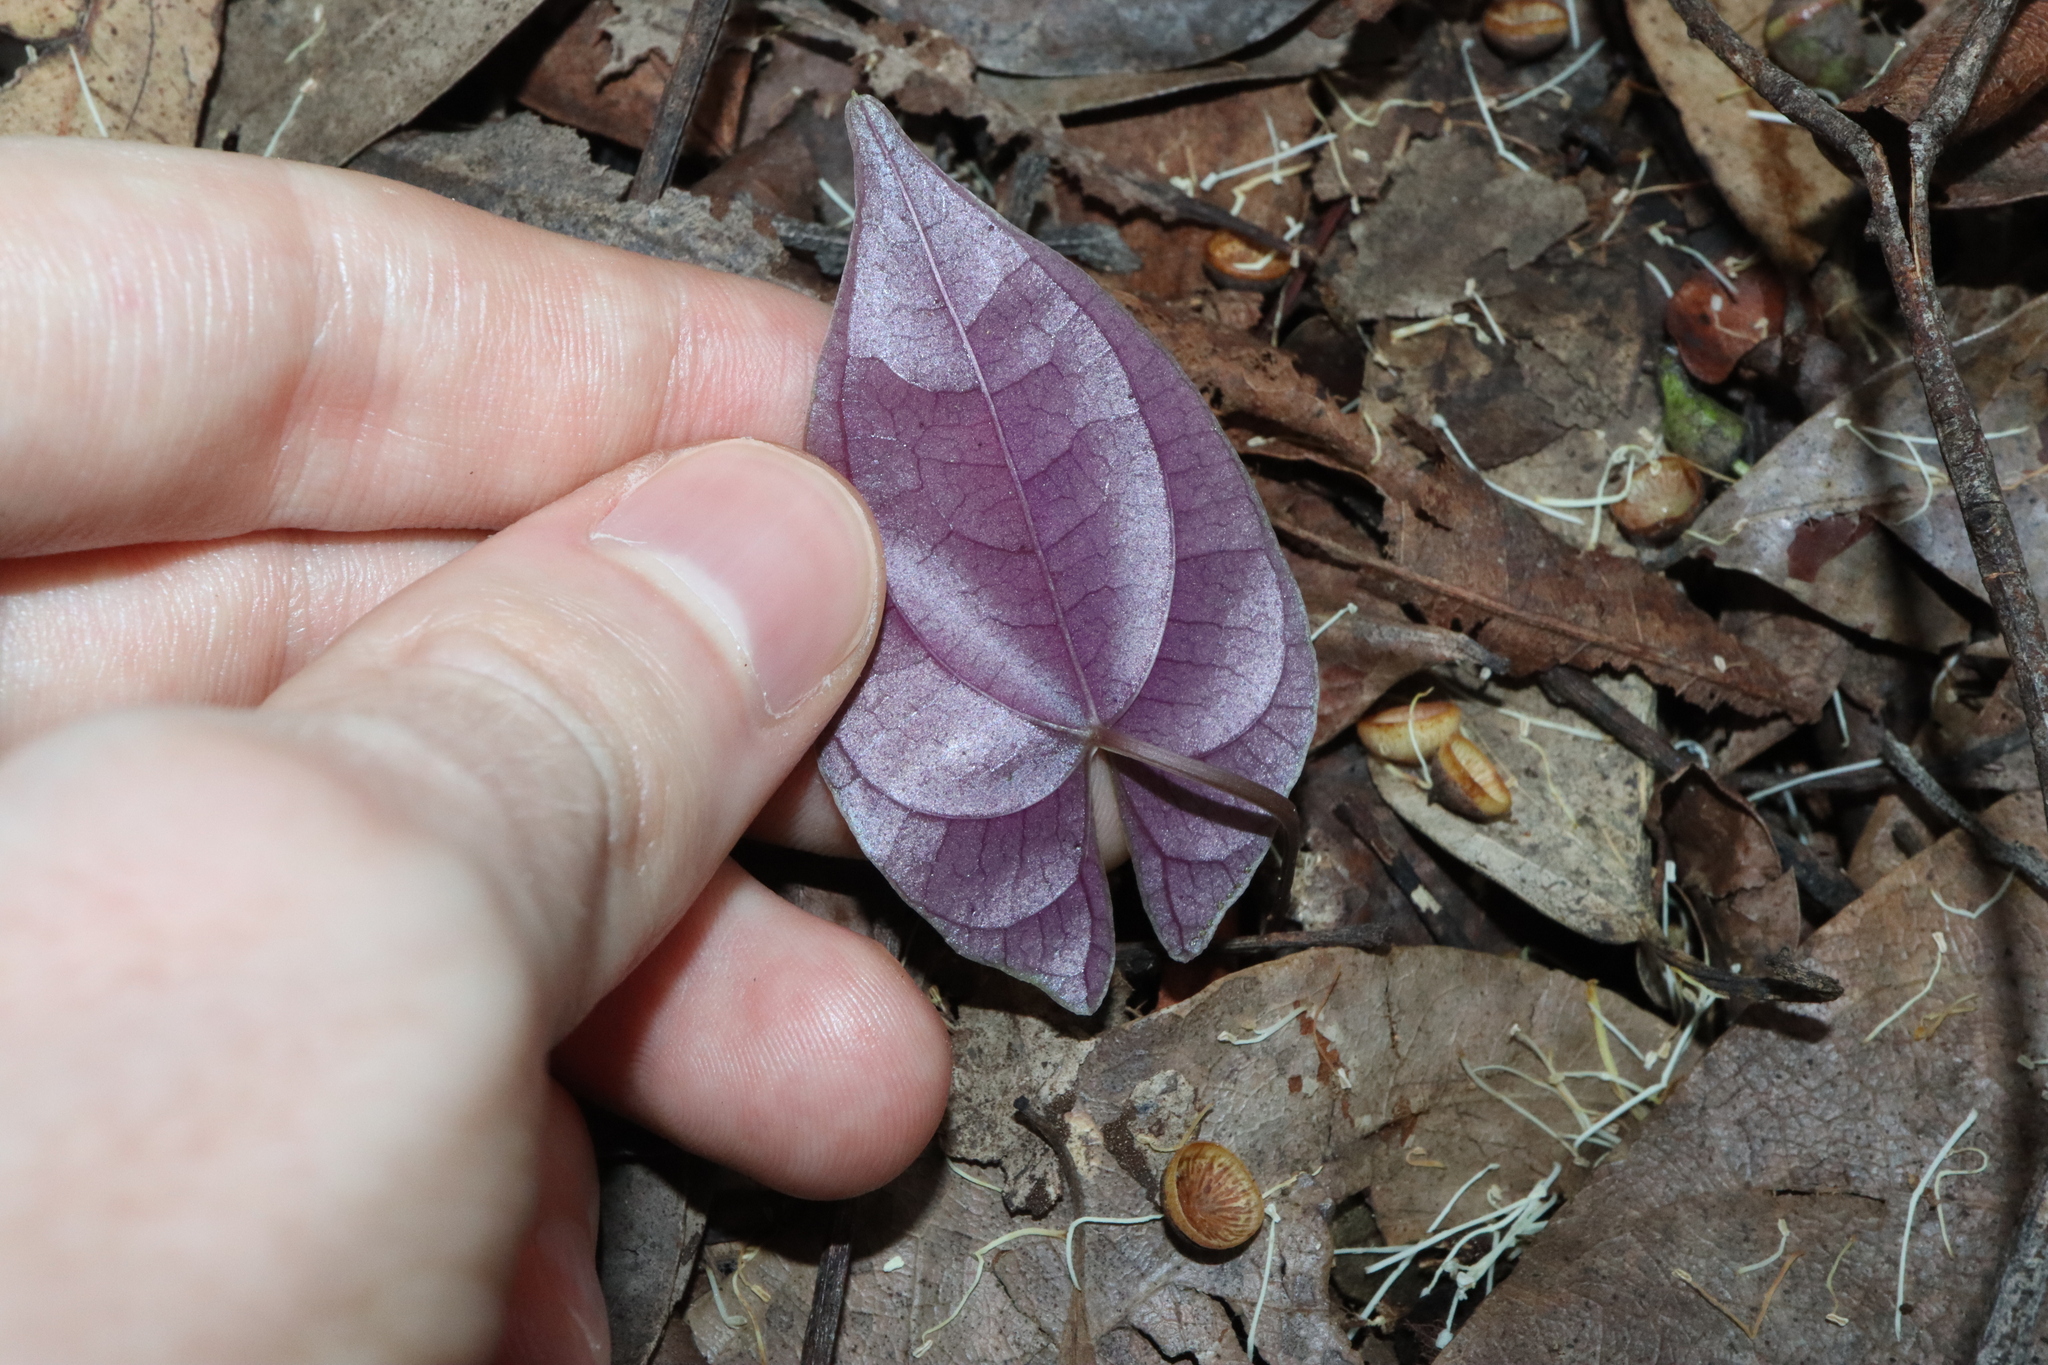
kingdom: Plantae
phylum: Tracheophyta
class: Liliopsida
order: Dioscoreales
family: Dioscoreaceae
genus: Dioscorea
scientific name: Dioscorea transversa
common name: Long yam
